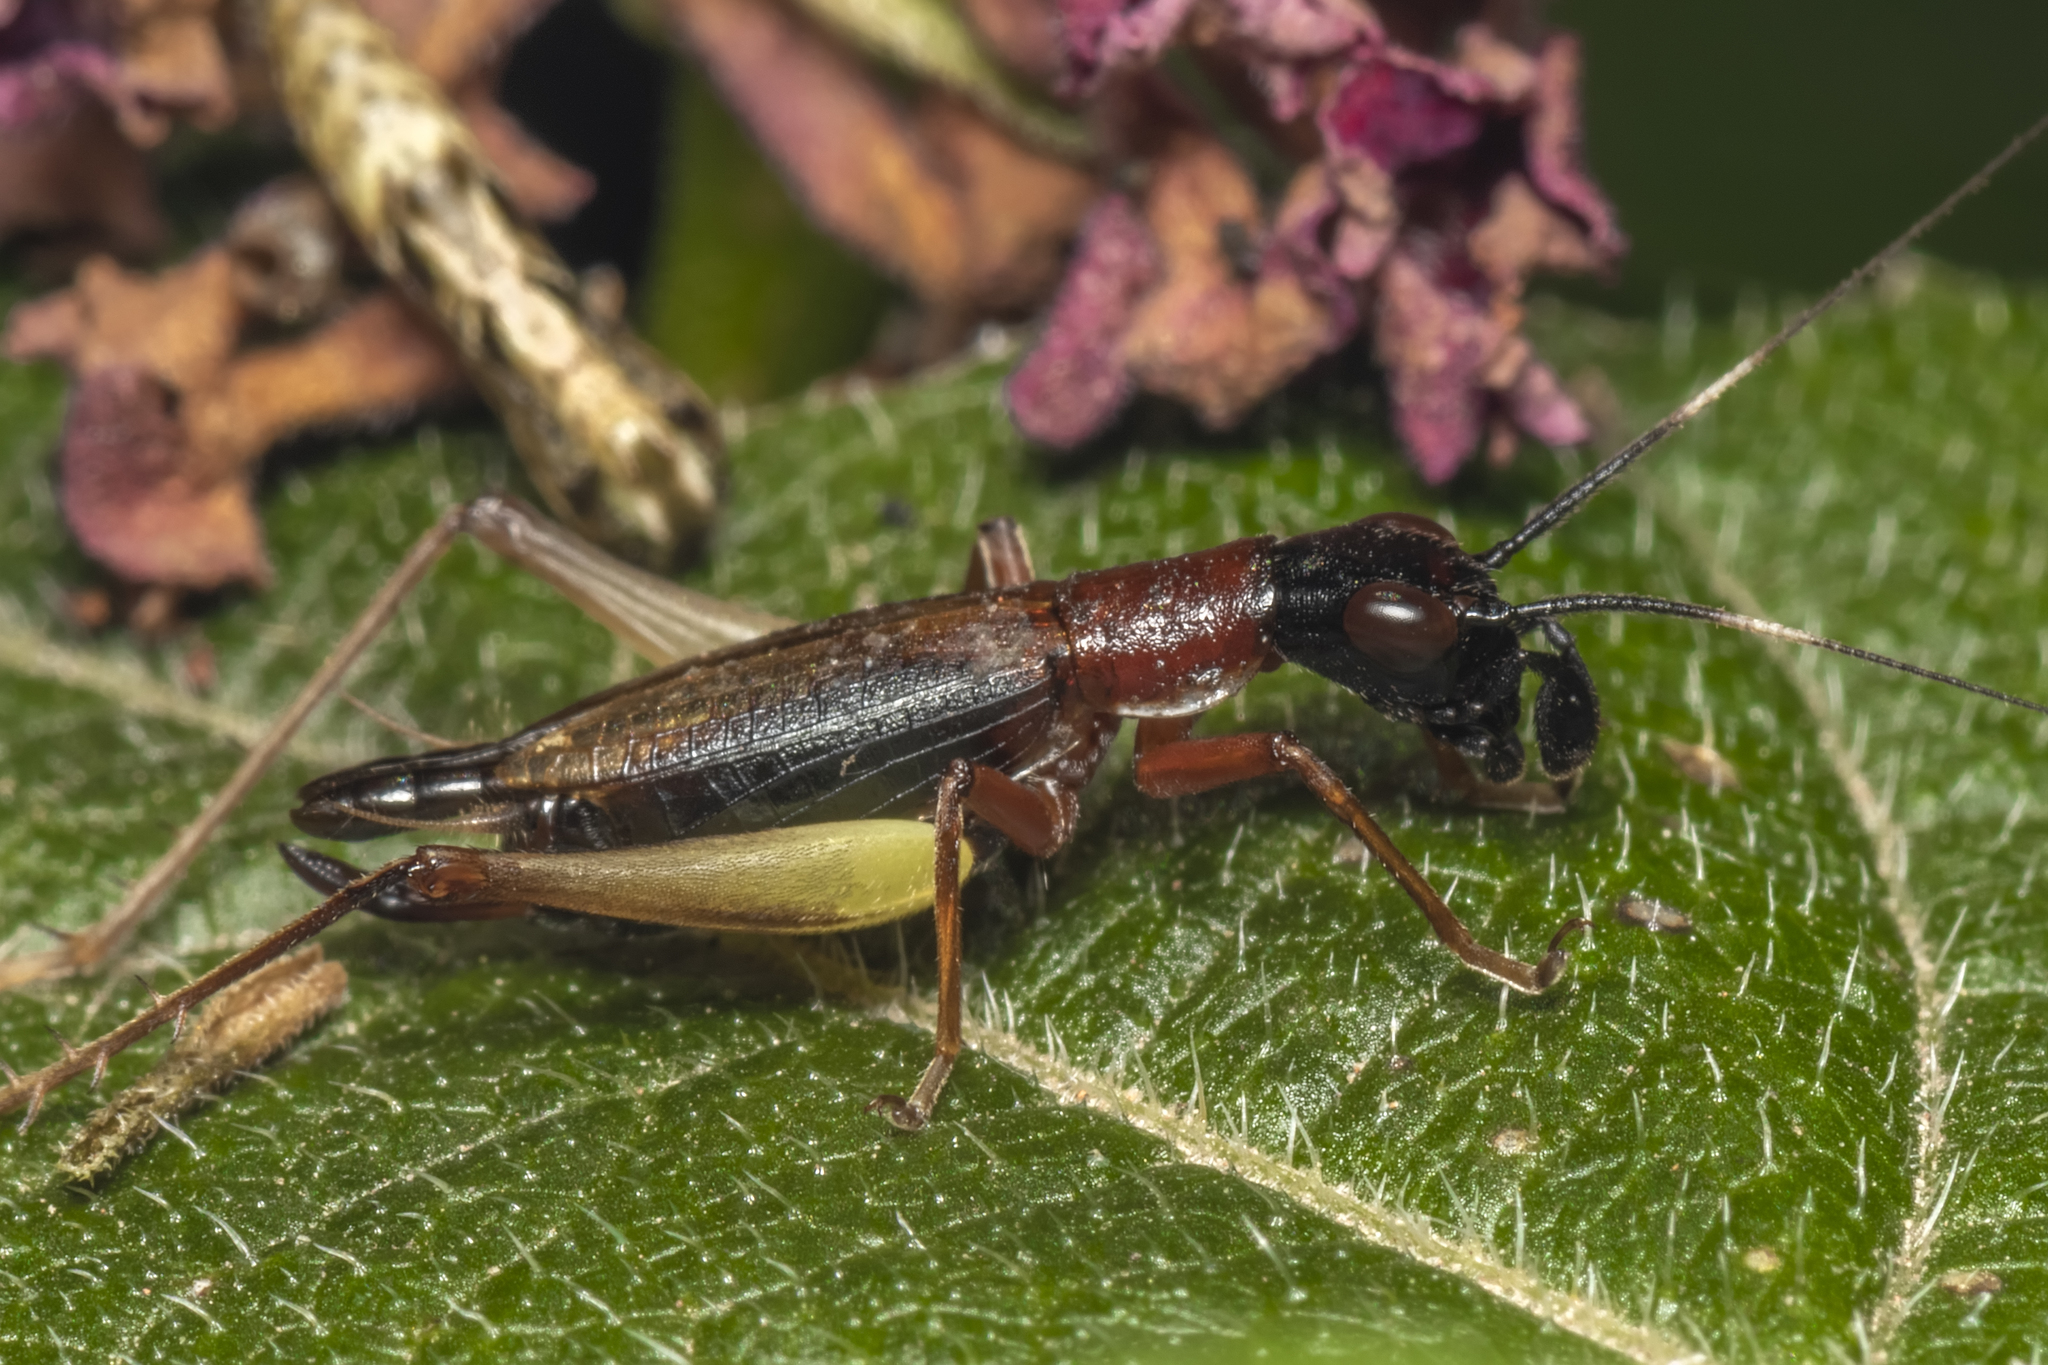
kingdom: Animalia
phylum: Arthropoda
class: Insecta
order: Orthoptera
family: Trigonidiidae
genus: Cranistus
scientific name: Cranistus colliurides
